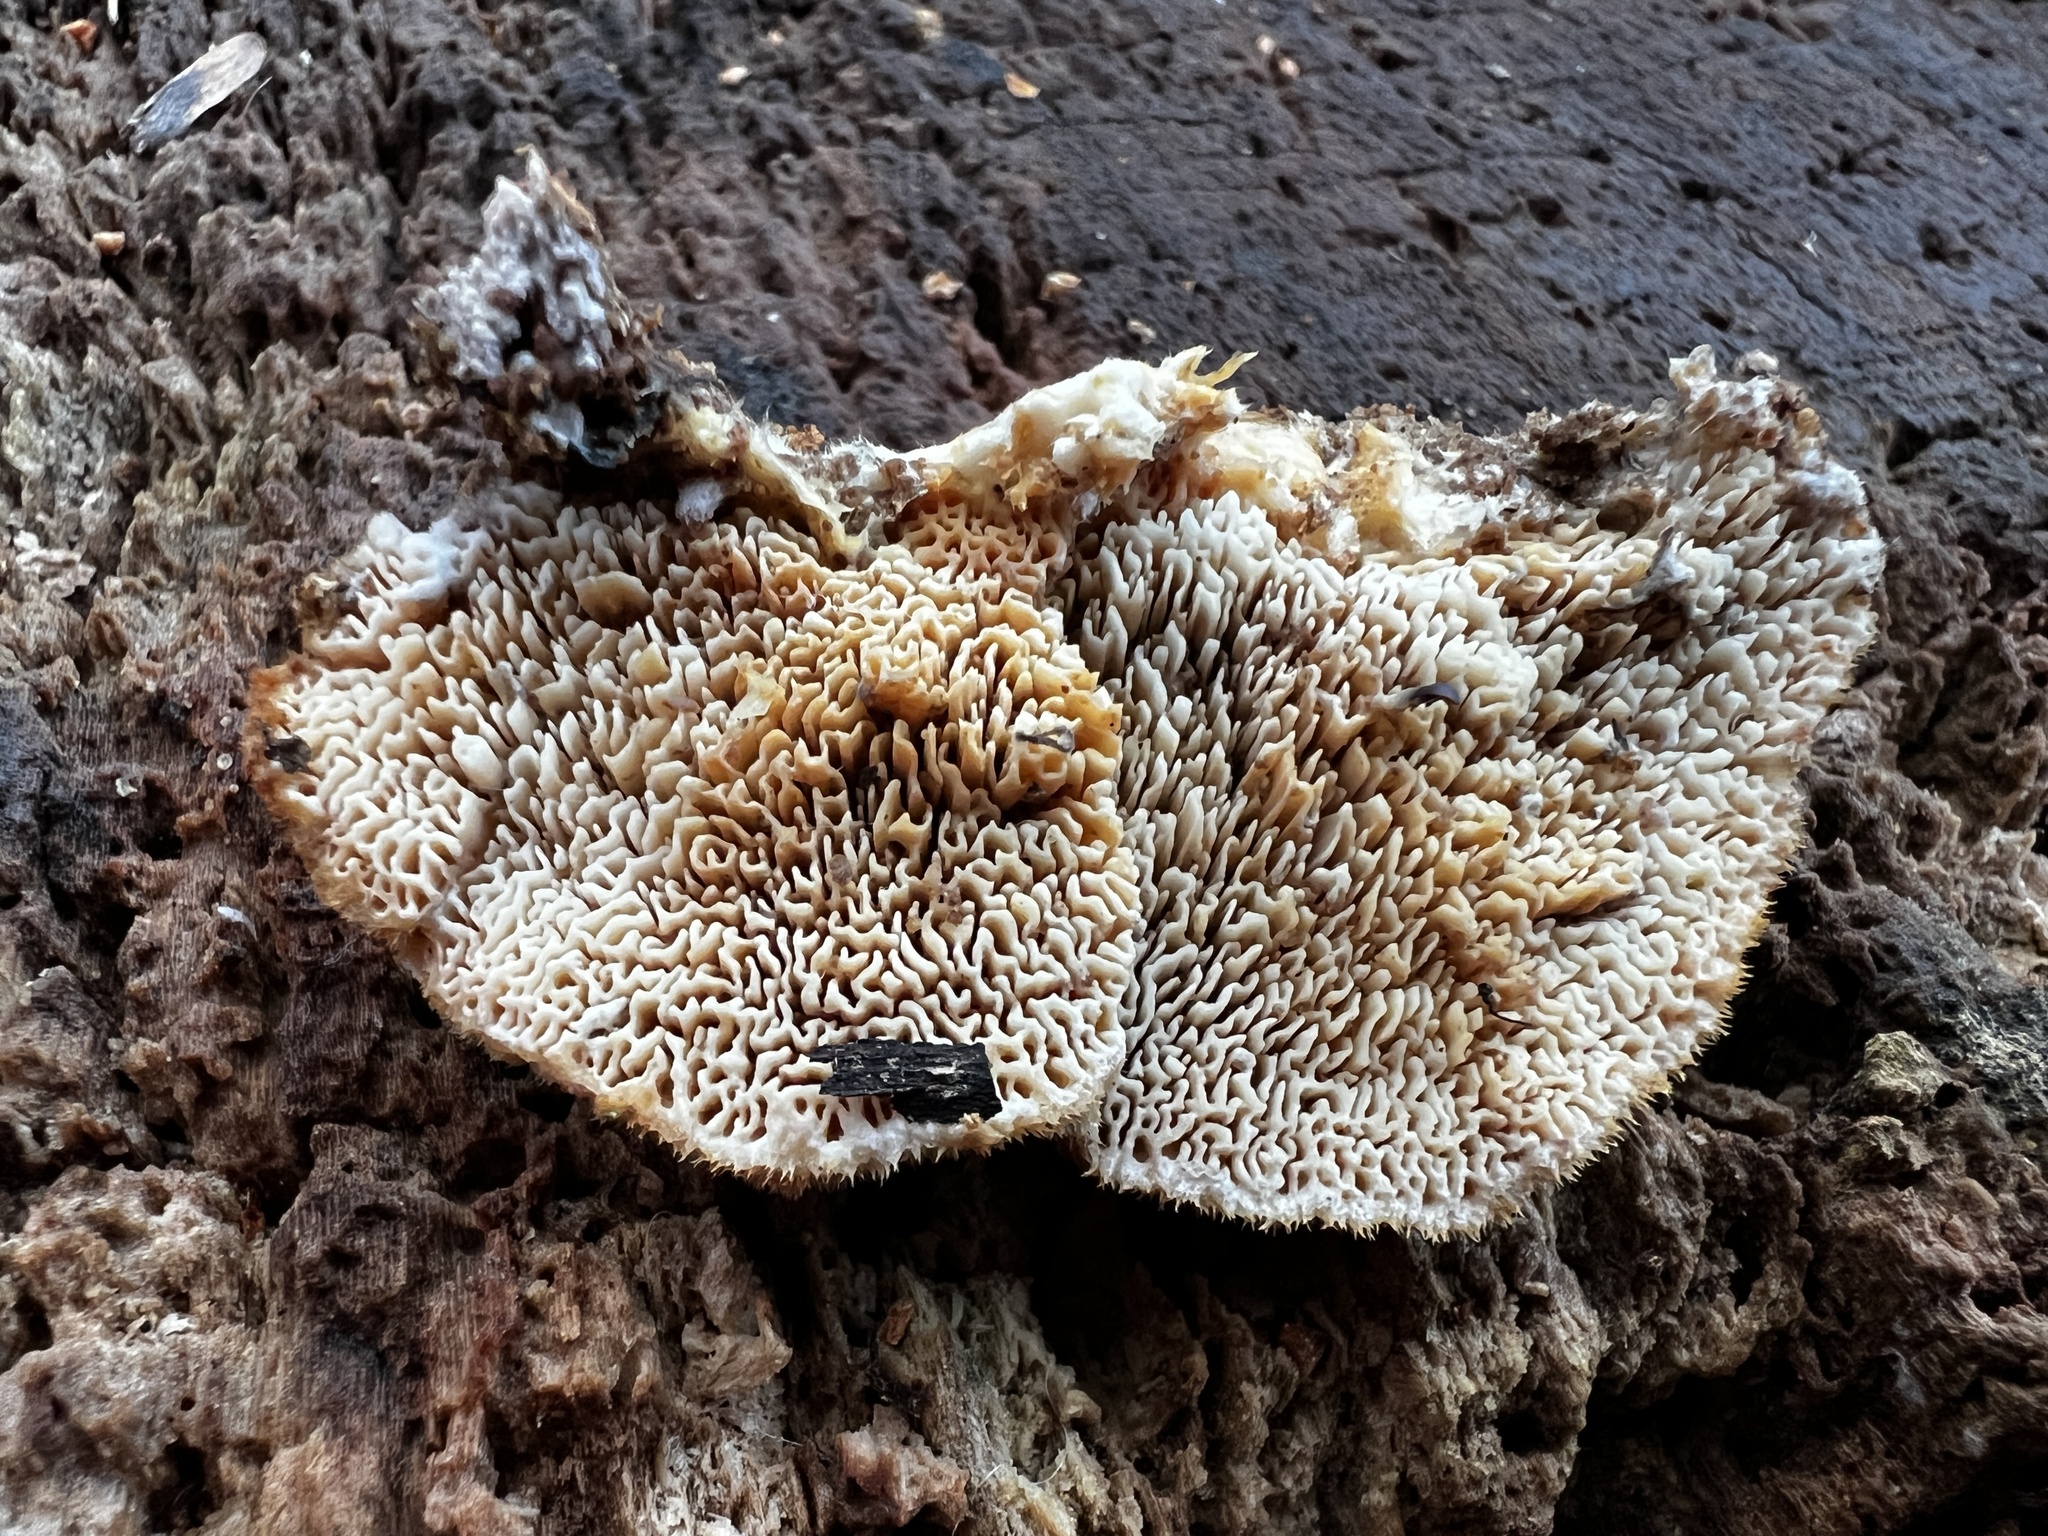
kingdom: Fungi
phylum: Basidiomycota
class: Agaricomycetes
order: Polyporales
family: Irpicaceae
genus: Trametopsis
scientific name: Trametopsis cervina
